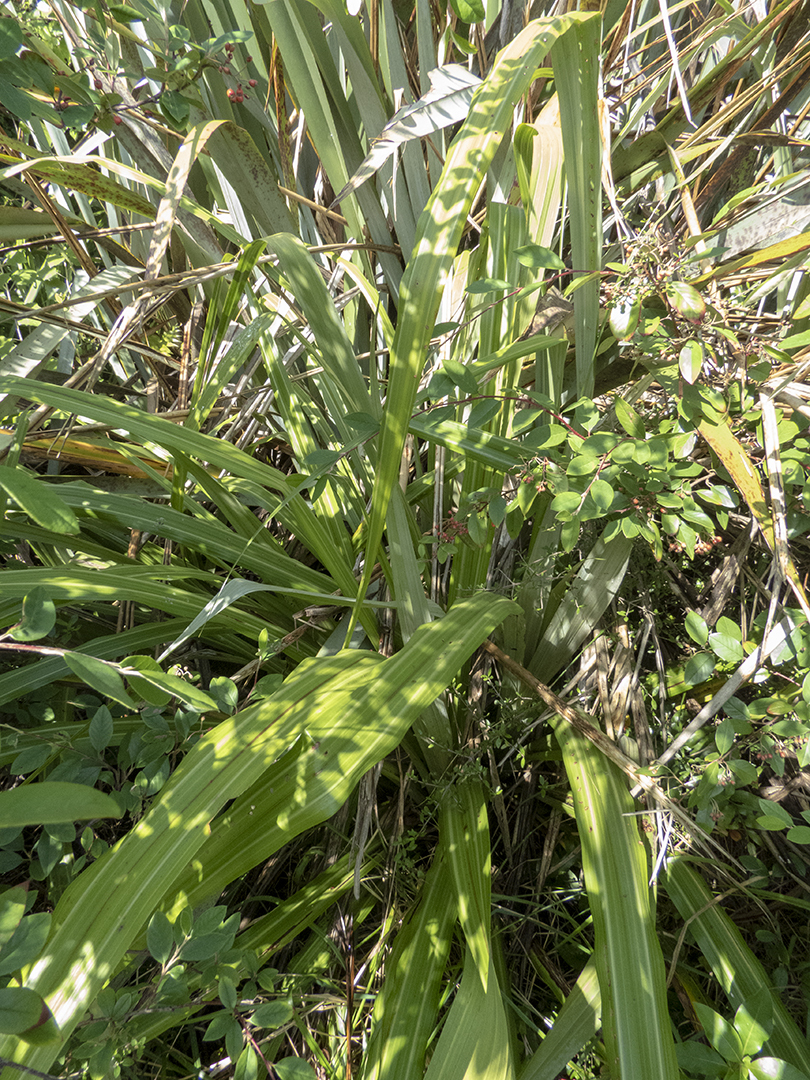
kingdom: Plantae
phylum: Tracheophyta
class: Liliopsida
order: Asparagales
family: Asteliaceae
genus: Astelia
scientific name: Astelia fragrans
